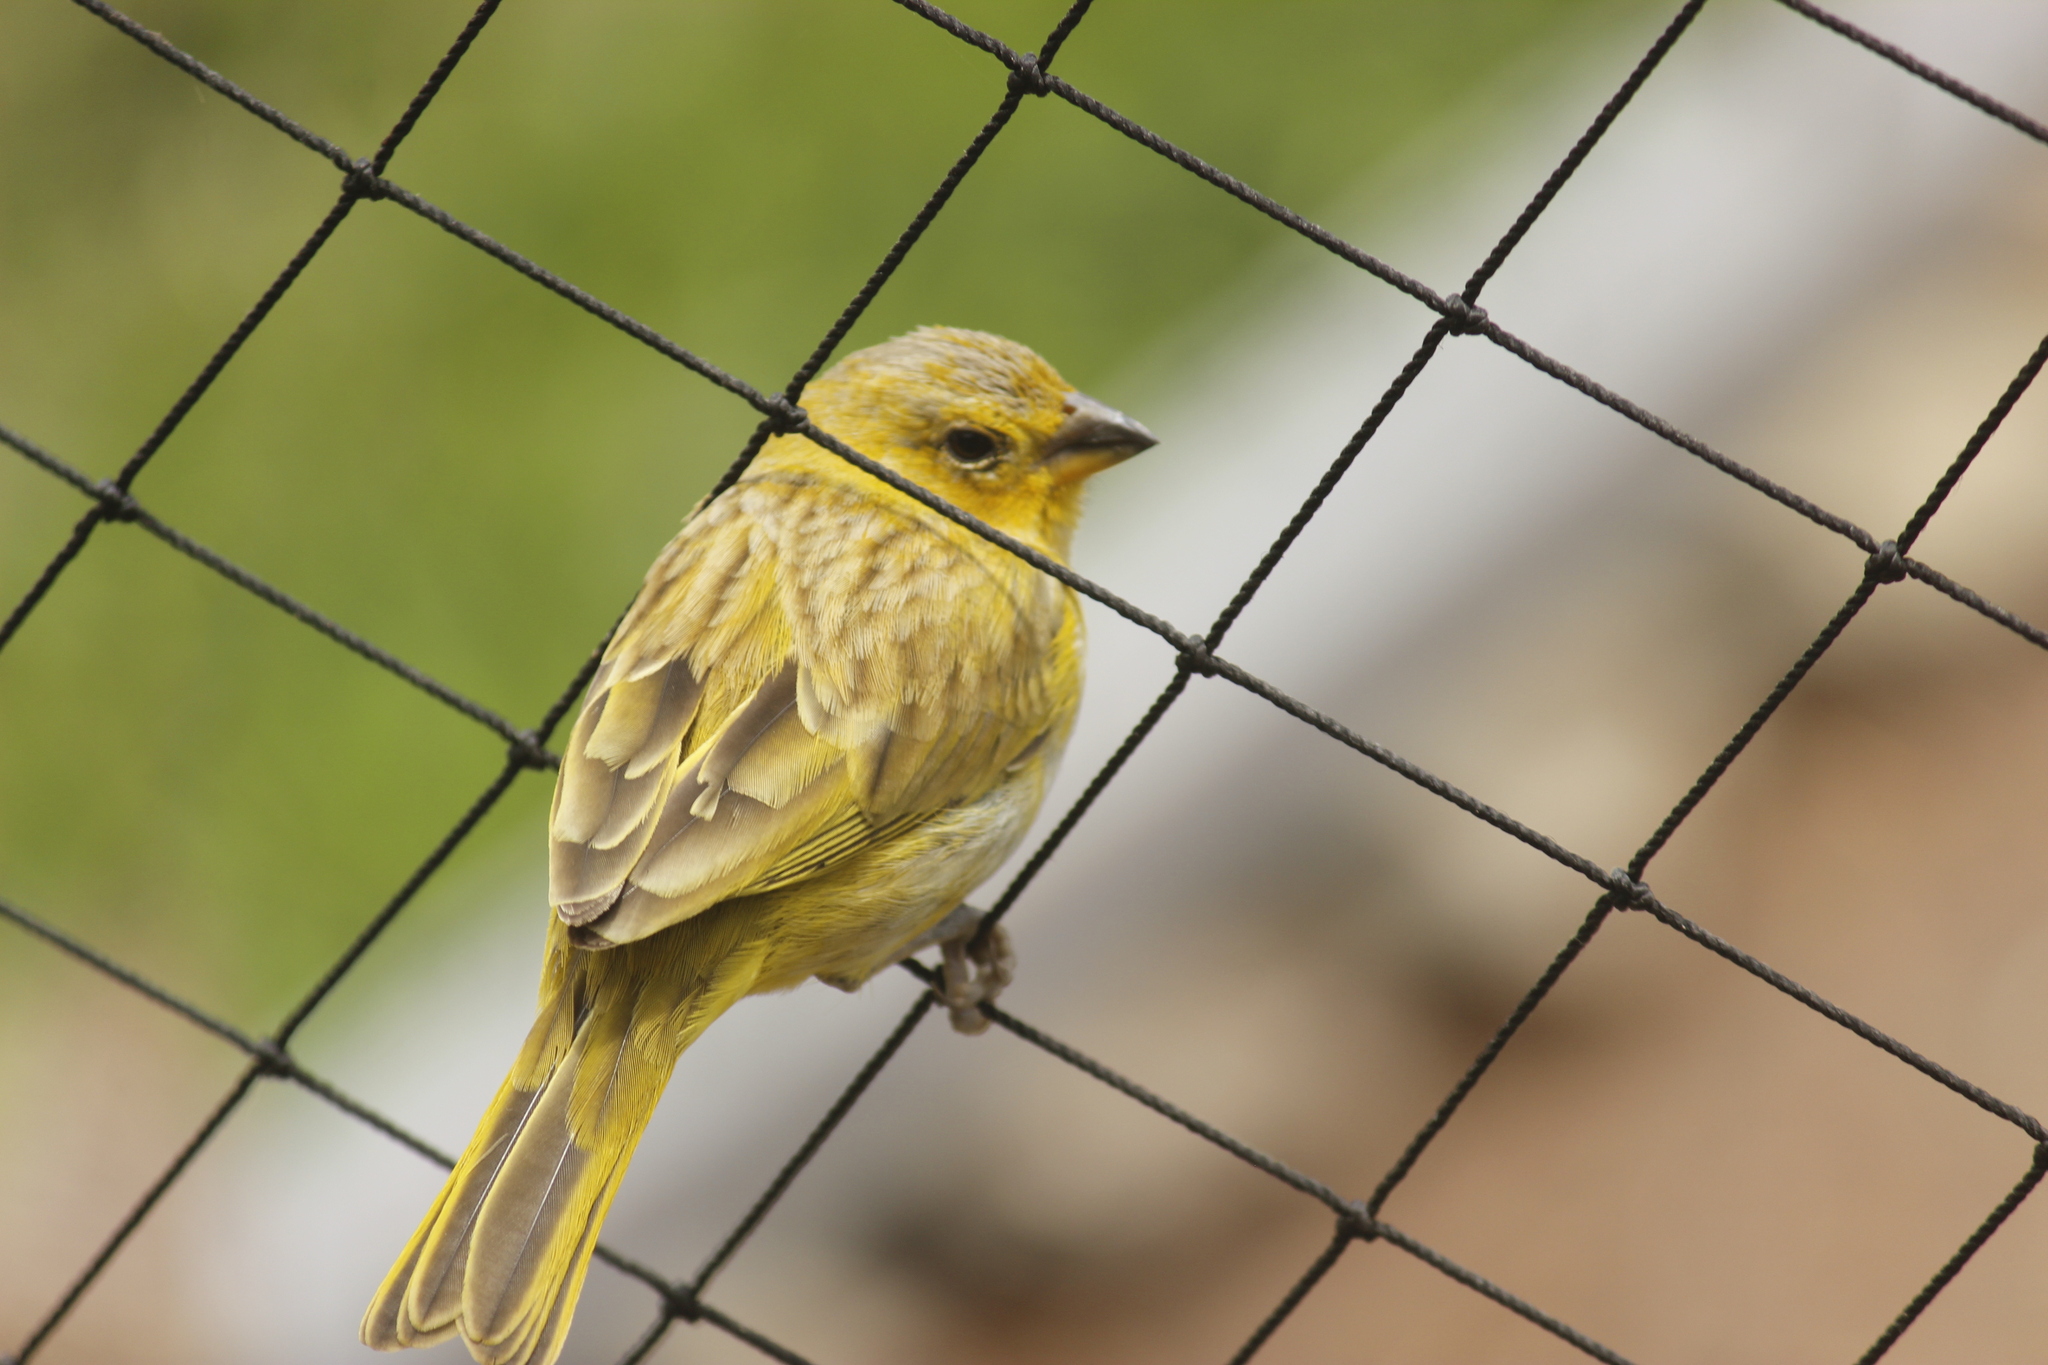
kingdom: Animalia
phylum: Chordata
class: Aves
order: Passeriformes
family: Thraupidae
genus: Sicalis
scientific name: Sicalis flaveola
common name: Saffron finch
